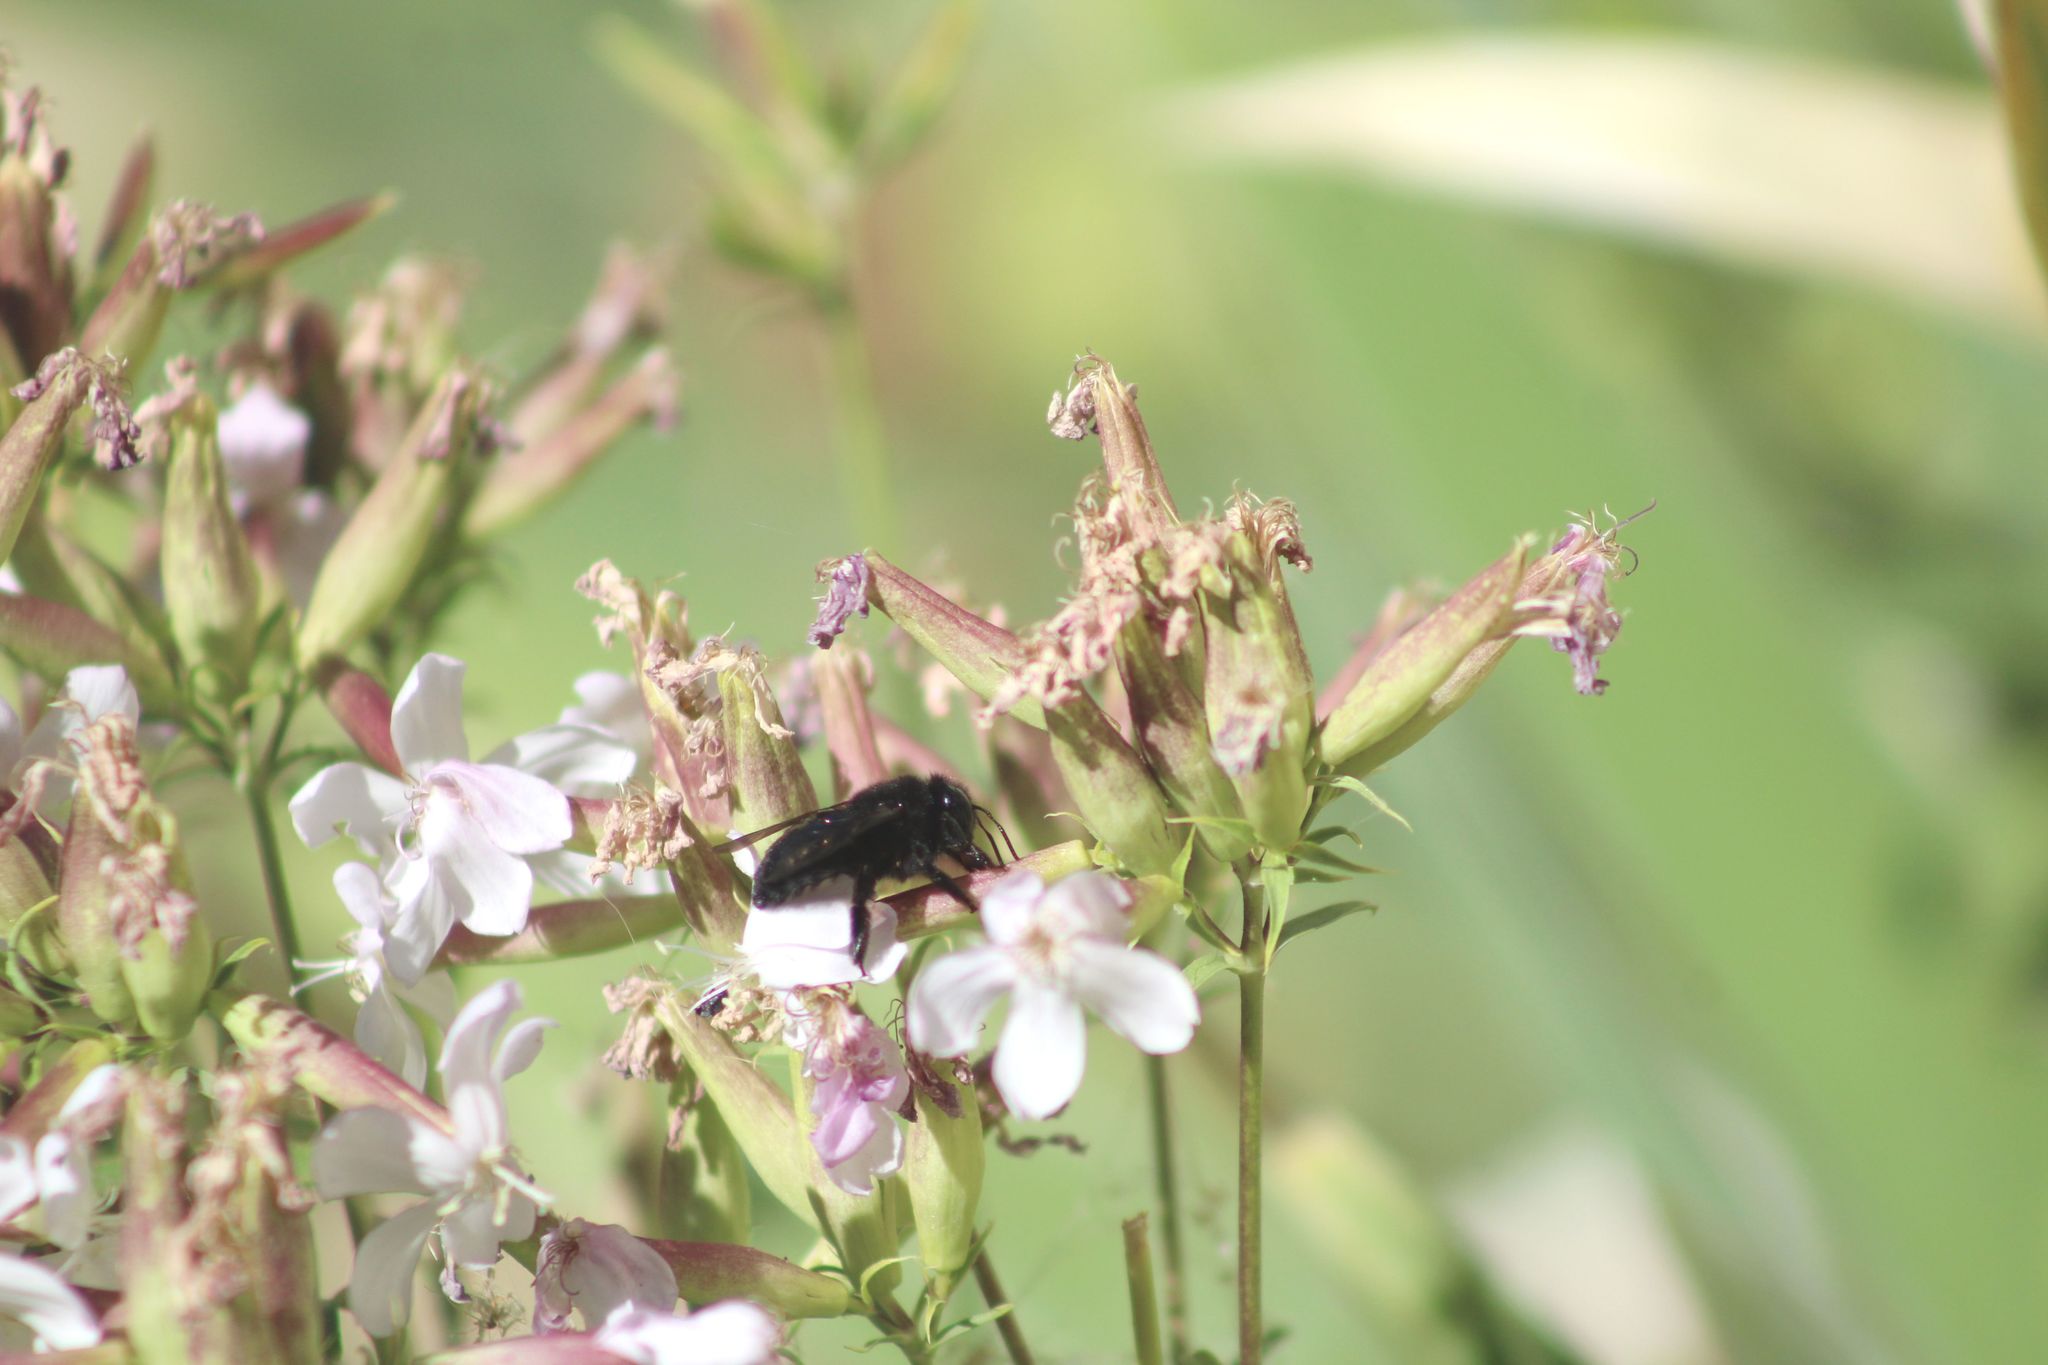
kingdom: Animalia
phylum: Arthropoda
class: Insecta
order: Hymenoptera
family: Apidae
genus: Xylocopa
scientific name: Xylocopa
